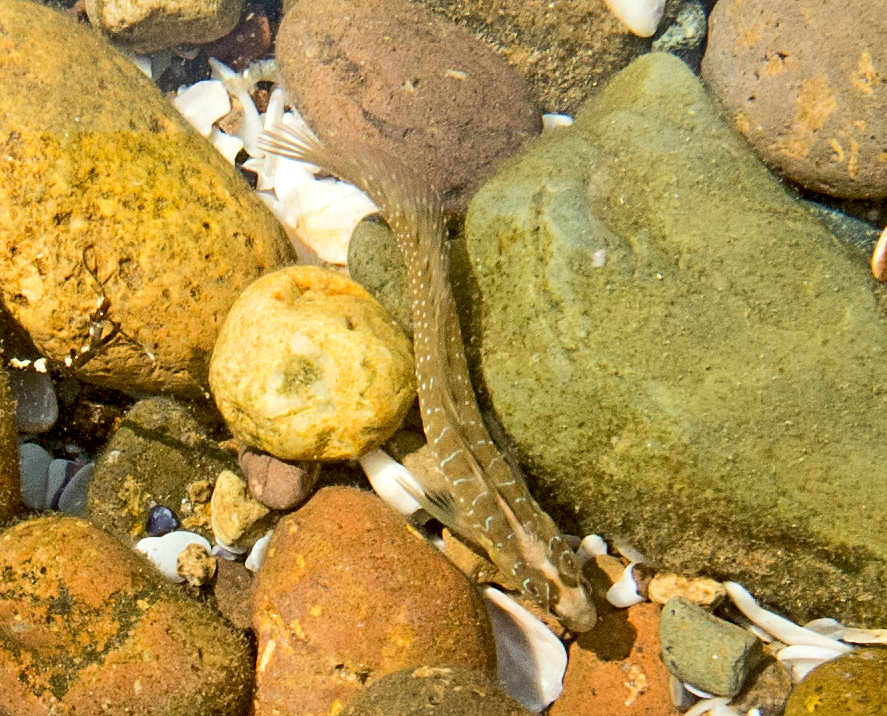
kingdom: Animalia
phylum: Chordata
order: Perciformes
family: Blenniidae
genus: Salaria
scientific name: Salaria pavo
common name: Peacock blenny
